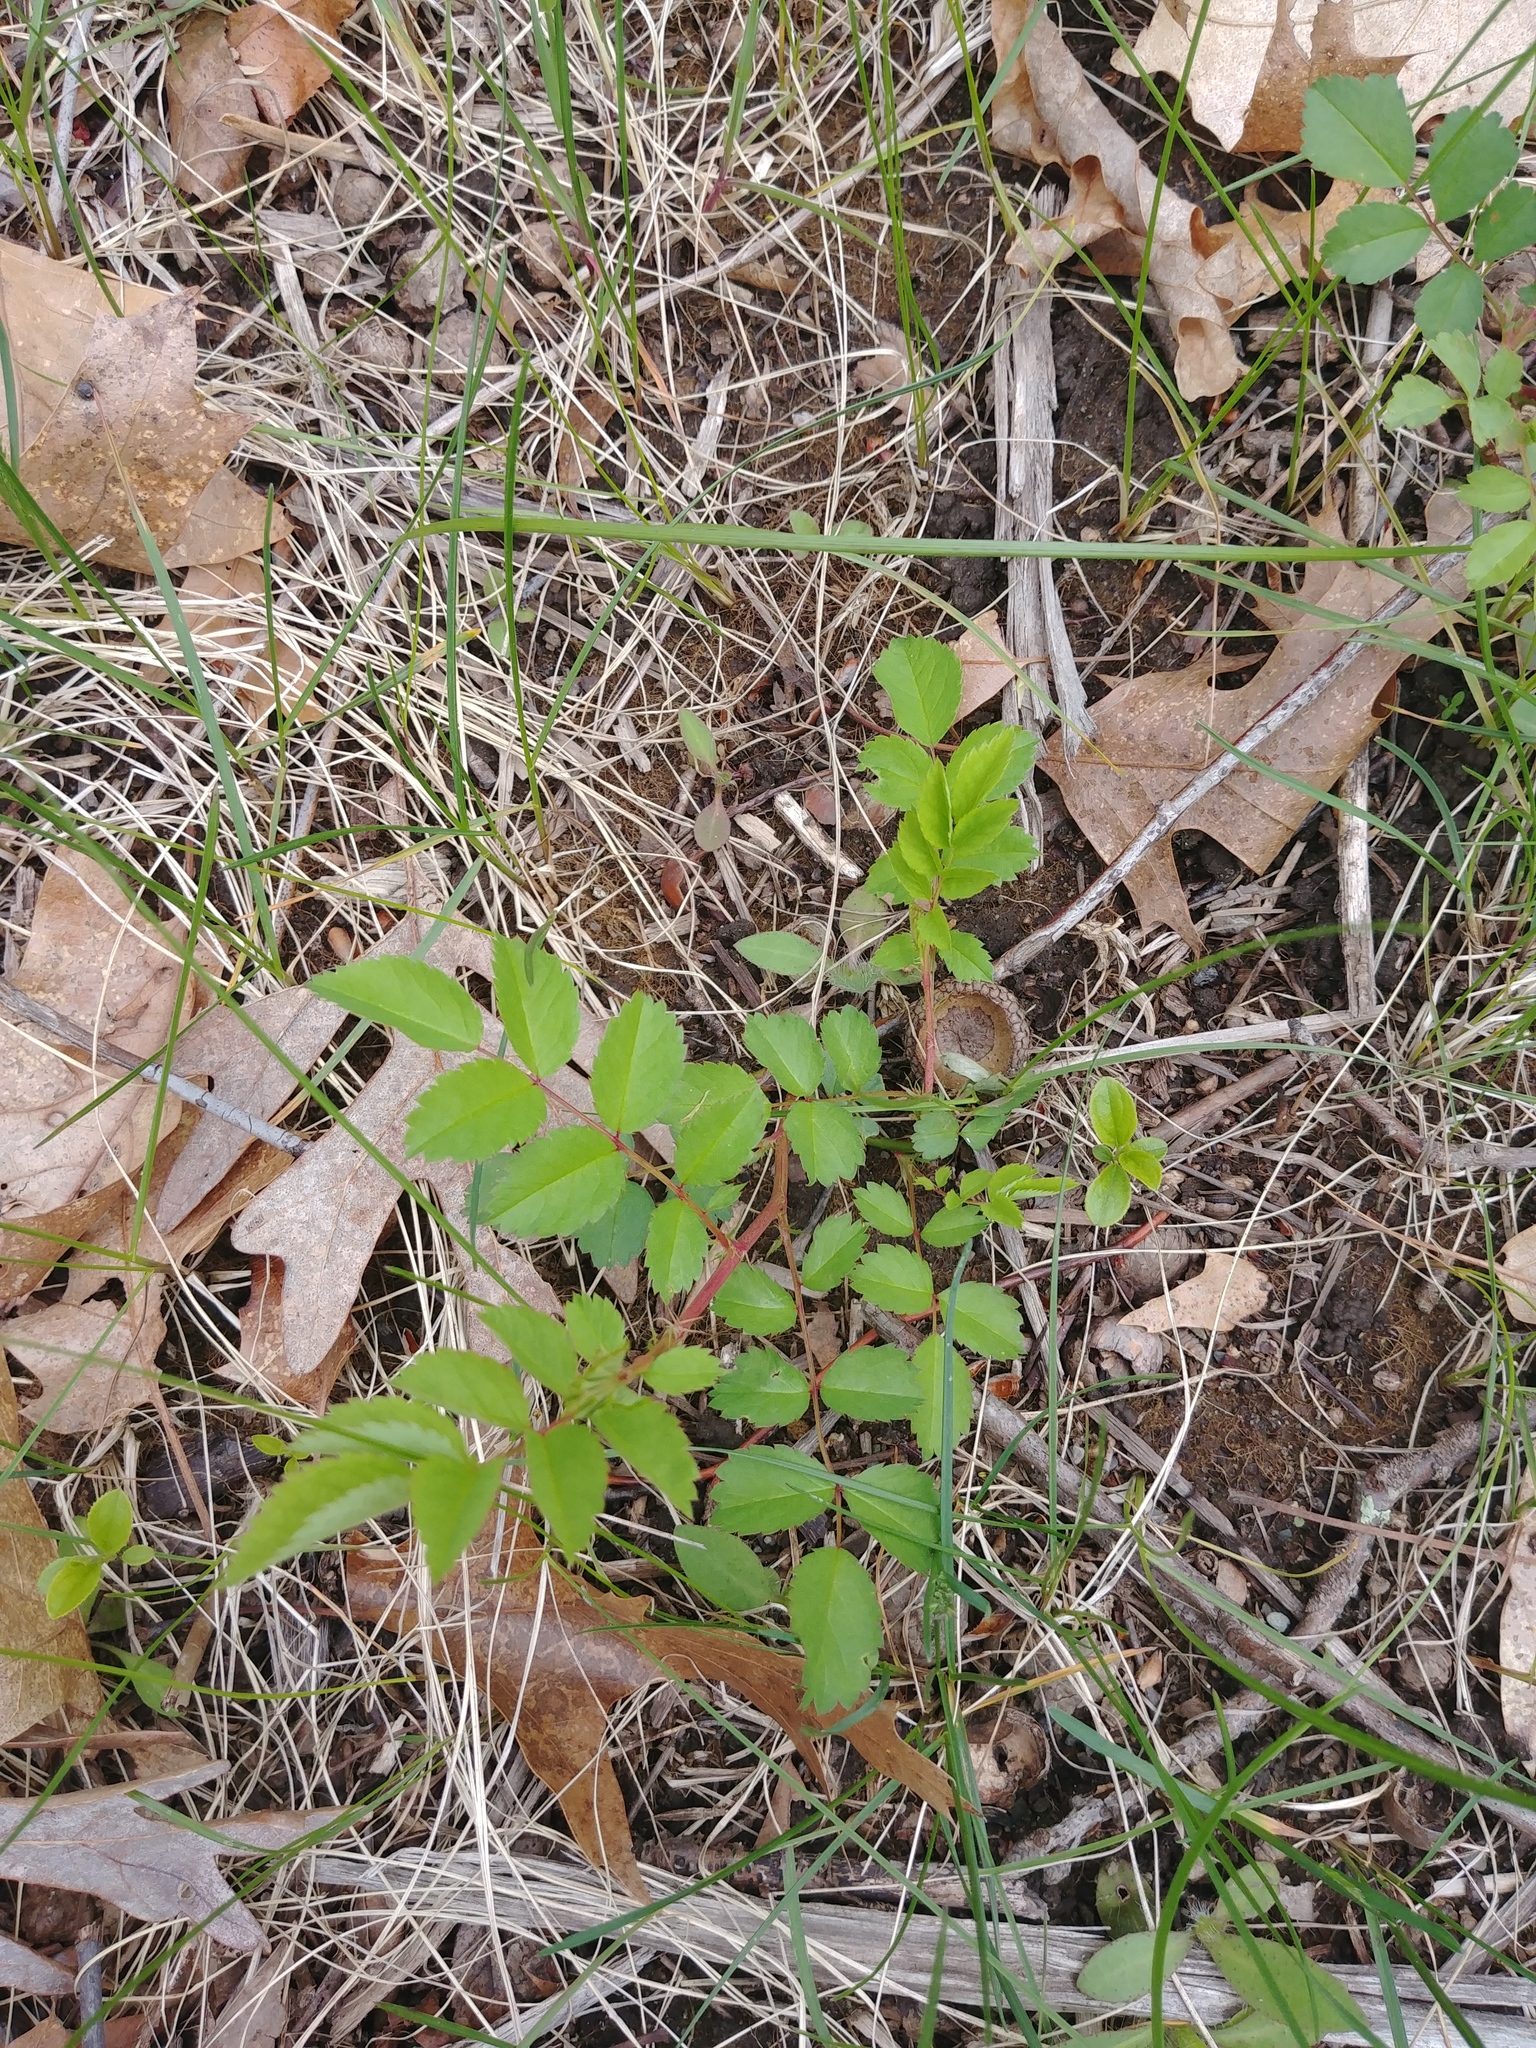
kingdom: Plantae
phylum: Tracheophyta
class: Magnoliopsida
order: Rosales
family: Rosaceae
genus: Rosa
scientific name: Rosa multiflora
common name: Multiflora rose
